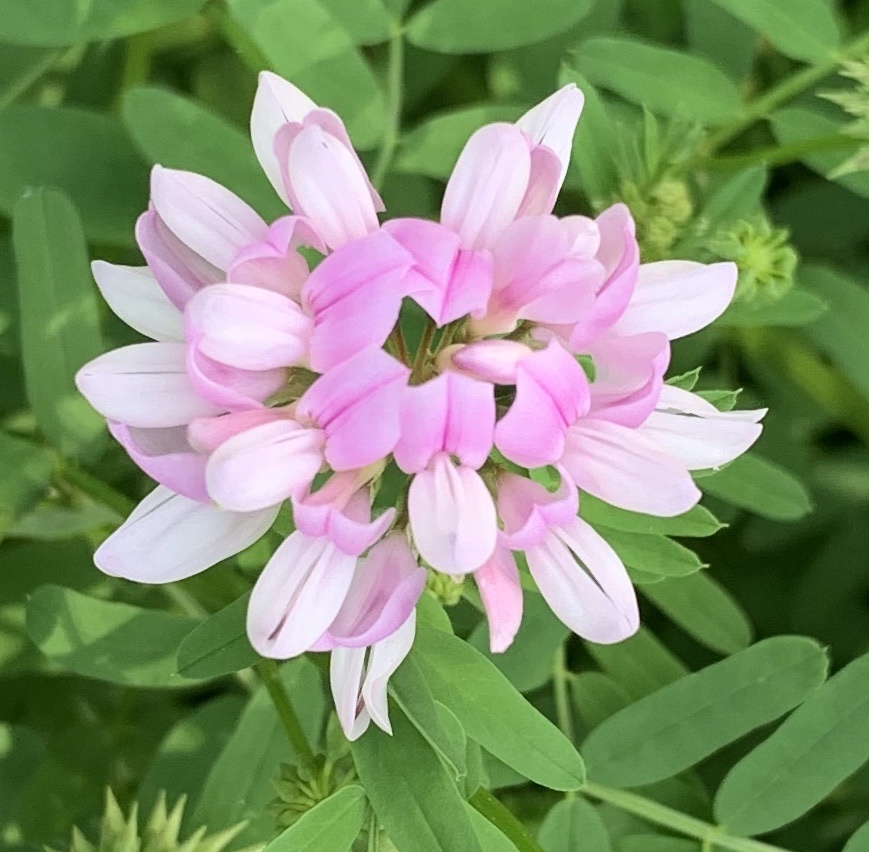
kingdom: Plantae
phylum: Tracheophyta
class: Magnoliopsida
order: Fabales
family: Fabaceae
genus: Coronilla
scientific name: Coronilla varia
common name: Crownvetch
